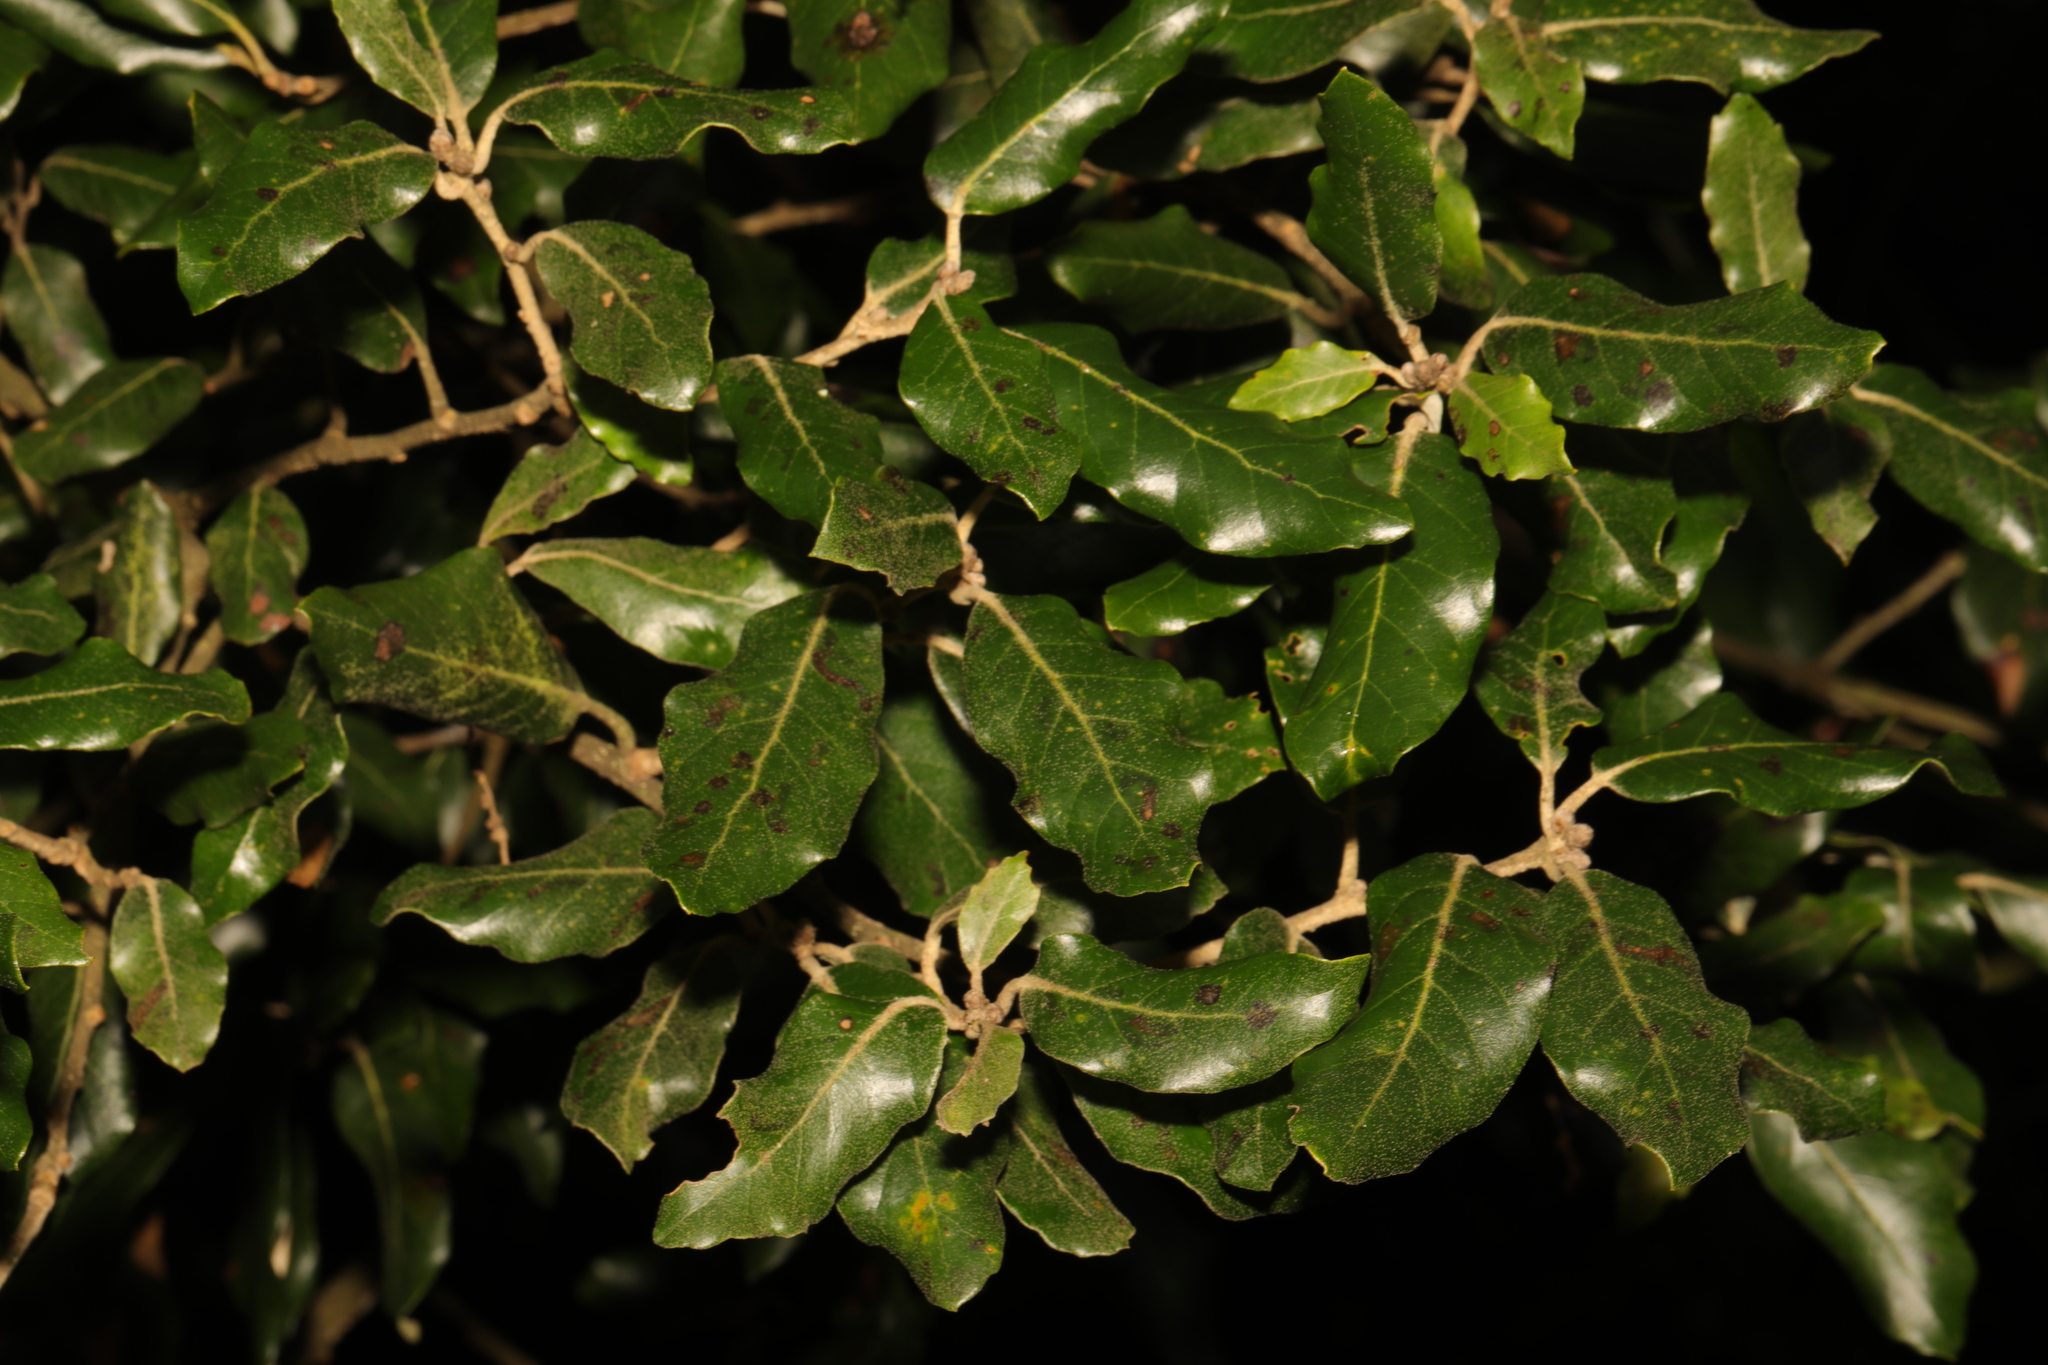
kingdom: Plantae
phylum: Tracheophyta
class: Magnoliopsida
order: Fagales
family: Fagaceae
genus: Quercus
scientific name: Quercus ilex
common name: Evergreen oak
